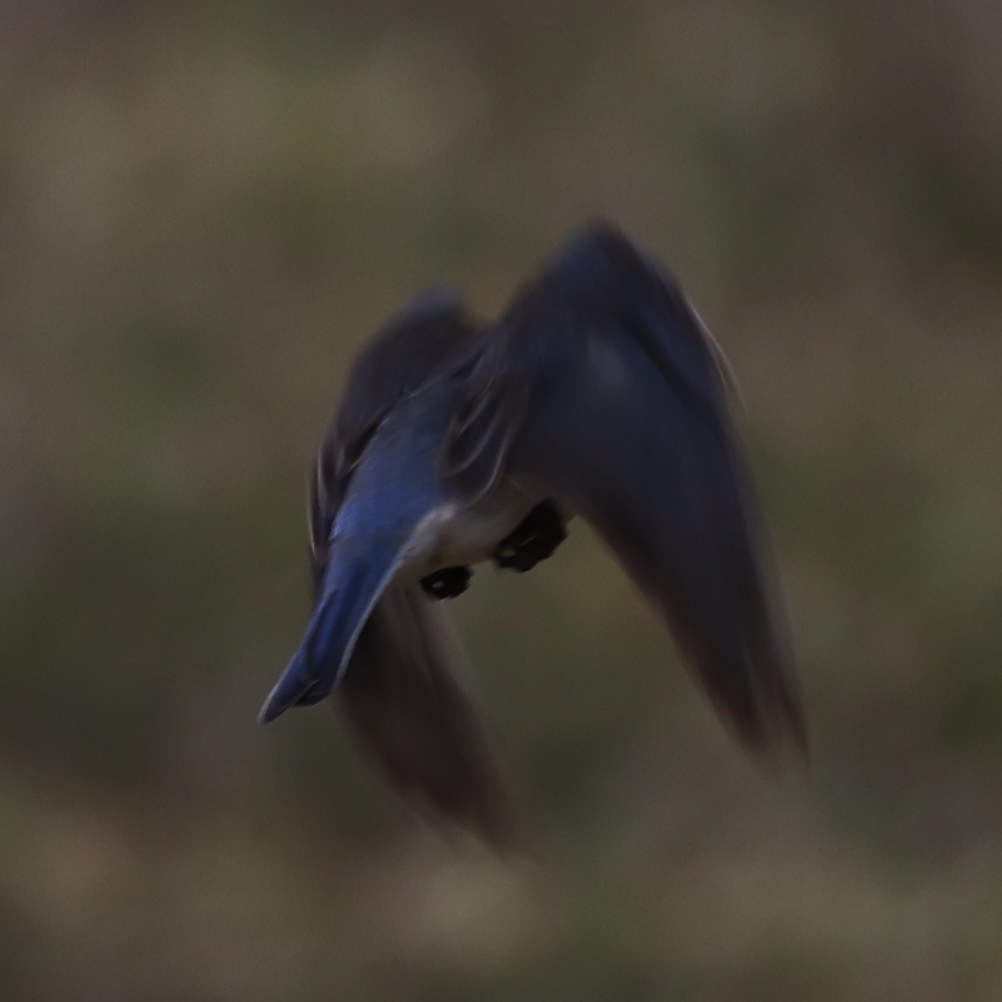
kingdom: Animalia
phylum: Chordata
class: Aves
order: Passeriformes
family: Turdidae
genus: Sialia
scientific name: Sialia sialis
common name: Eastern bluebird
